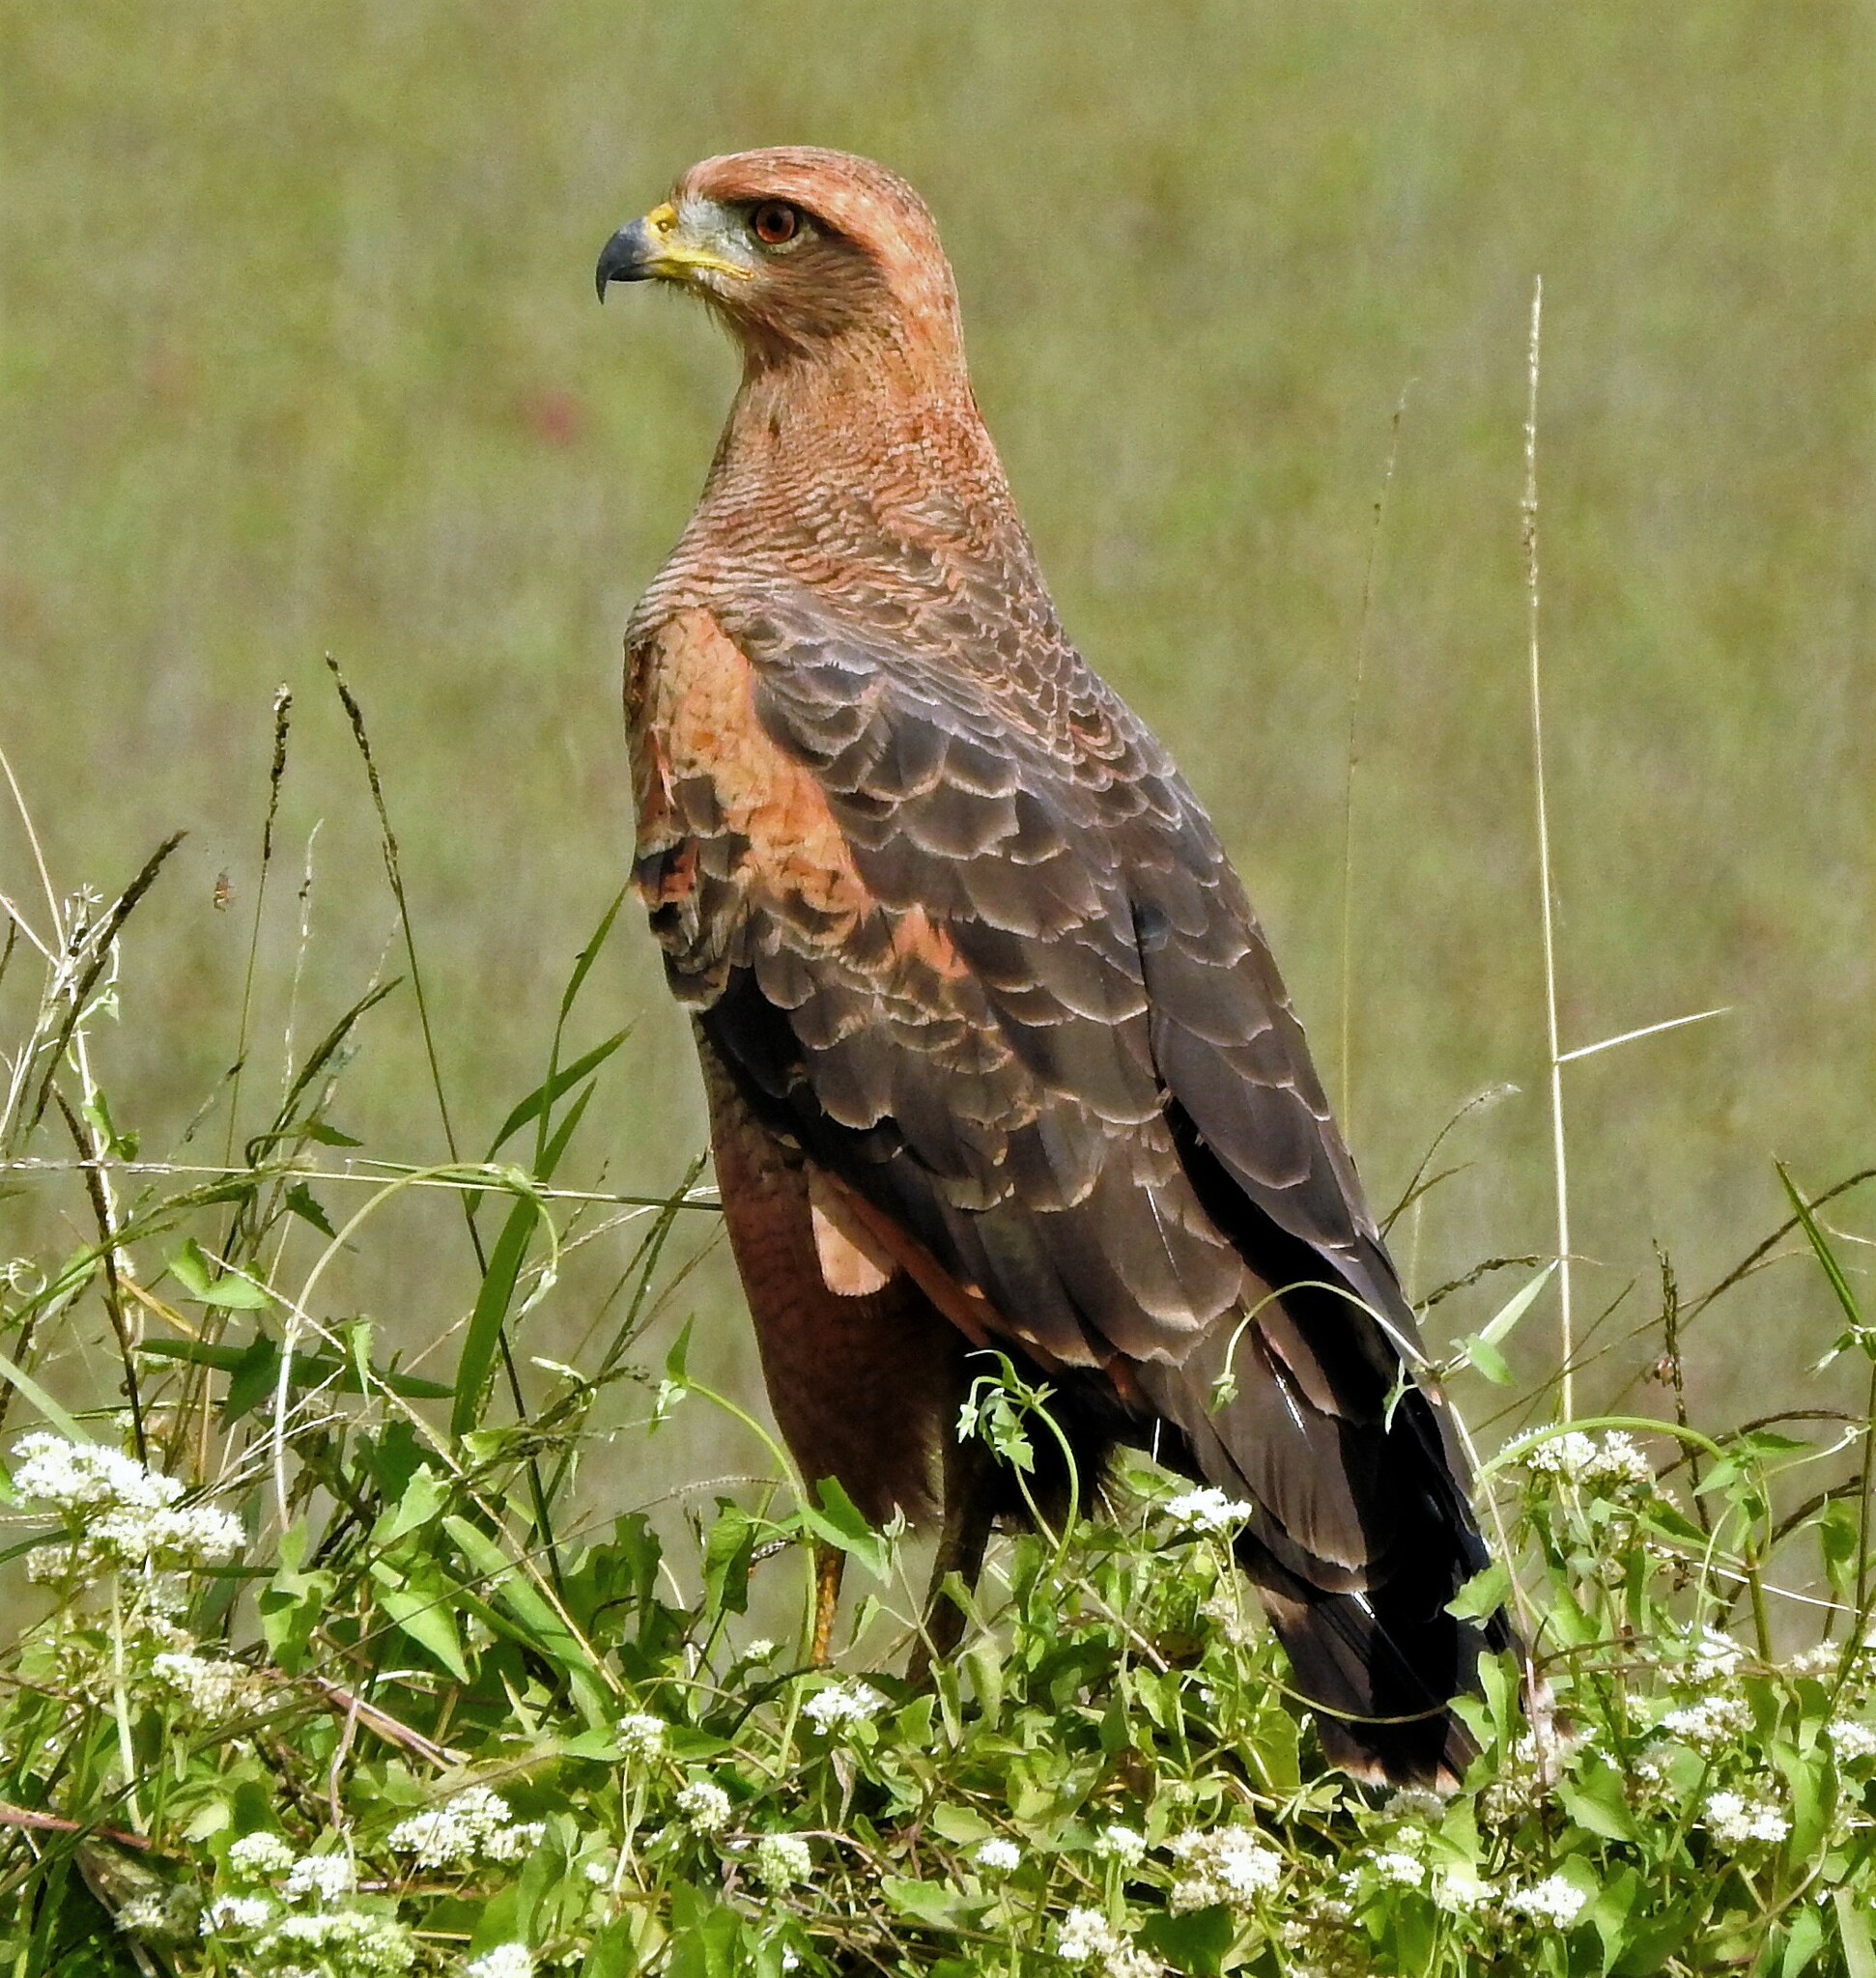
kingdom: Animalia
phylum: Chordata
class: Aves
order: Accipitriformes
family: Accipitridae
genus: Buteogallus
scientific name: Buteogallus meridionalis
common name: Savanna hawk
